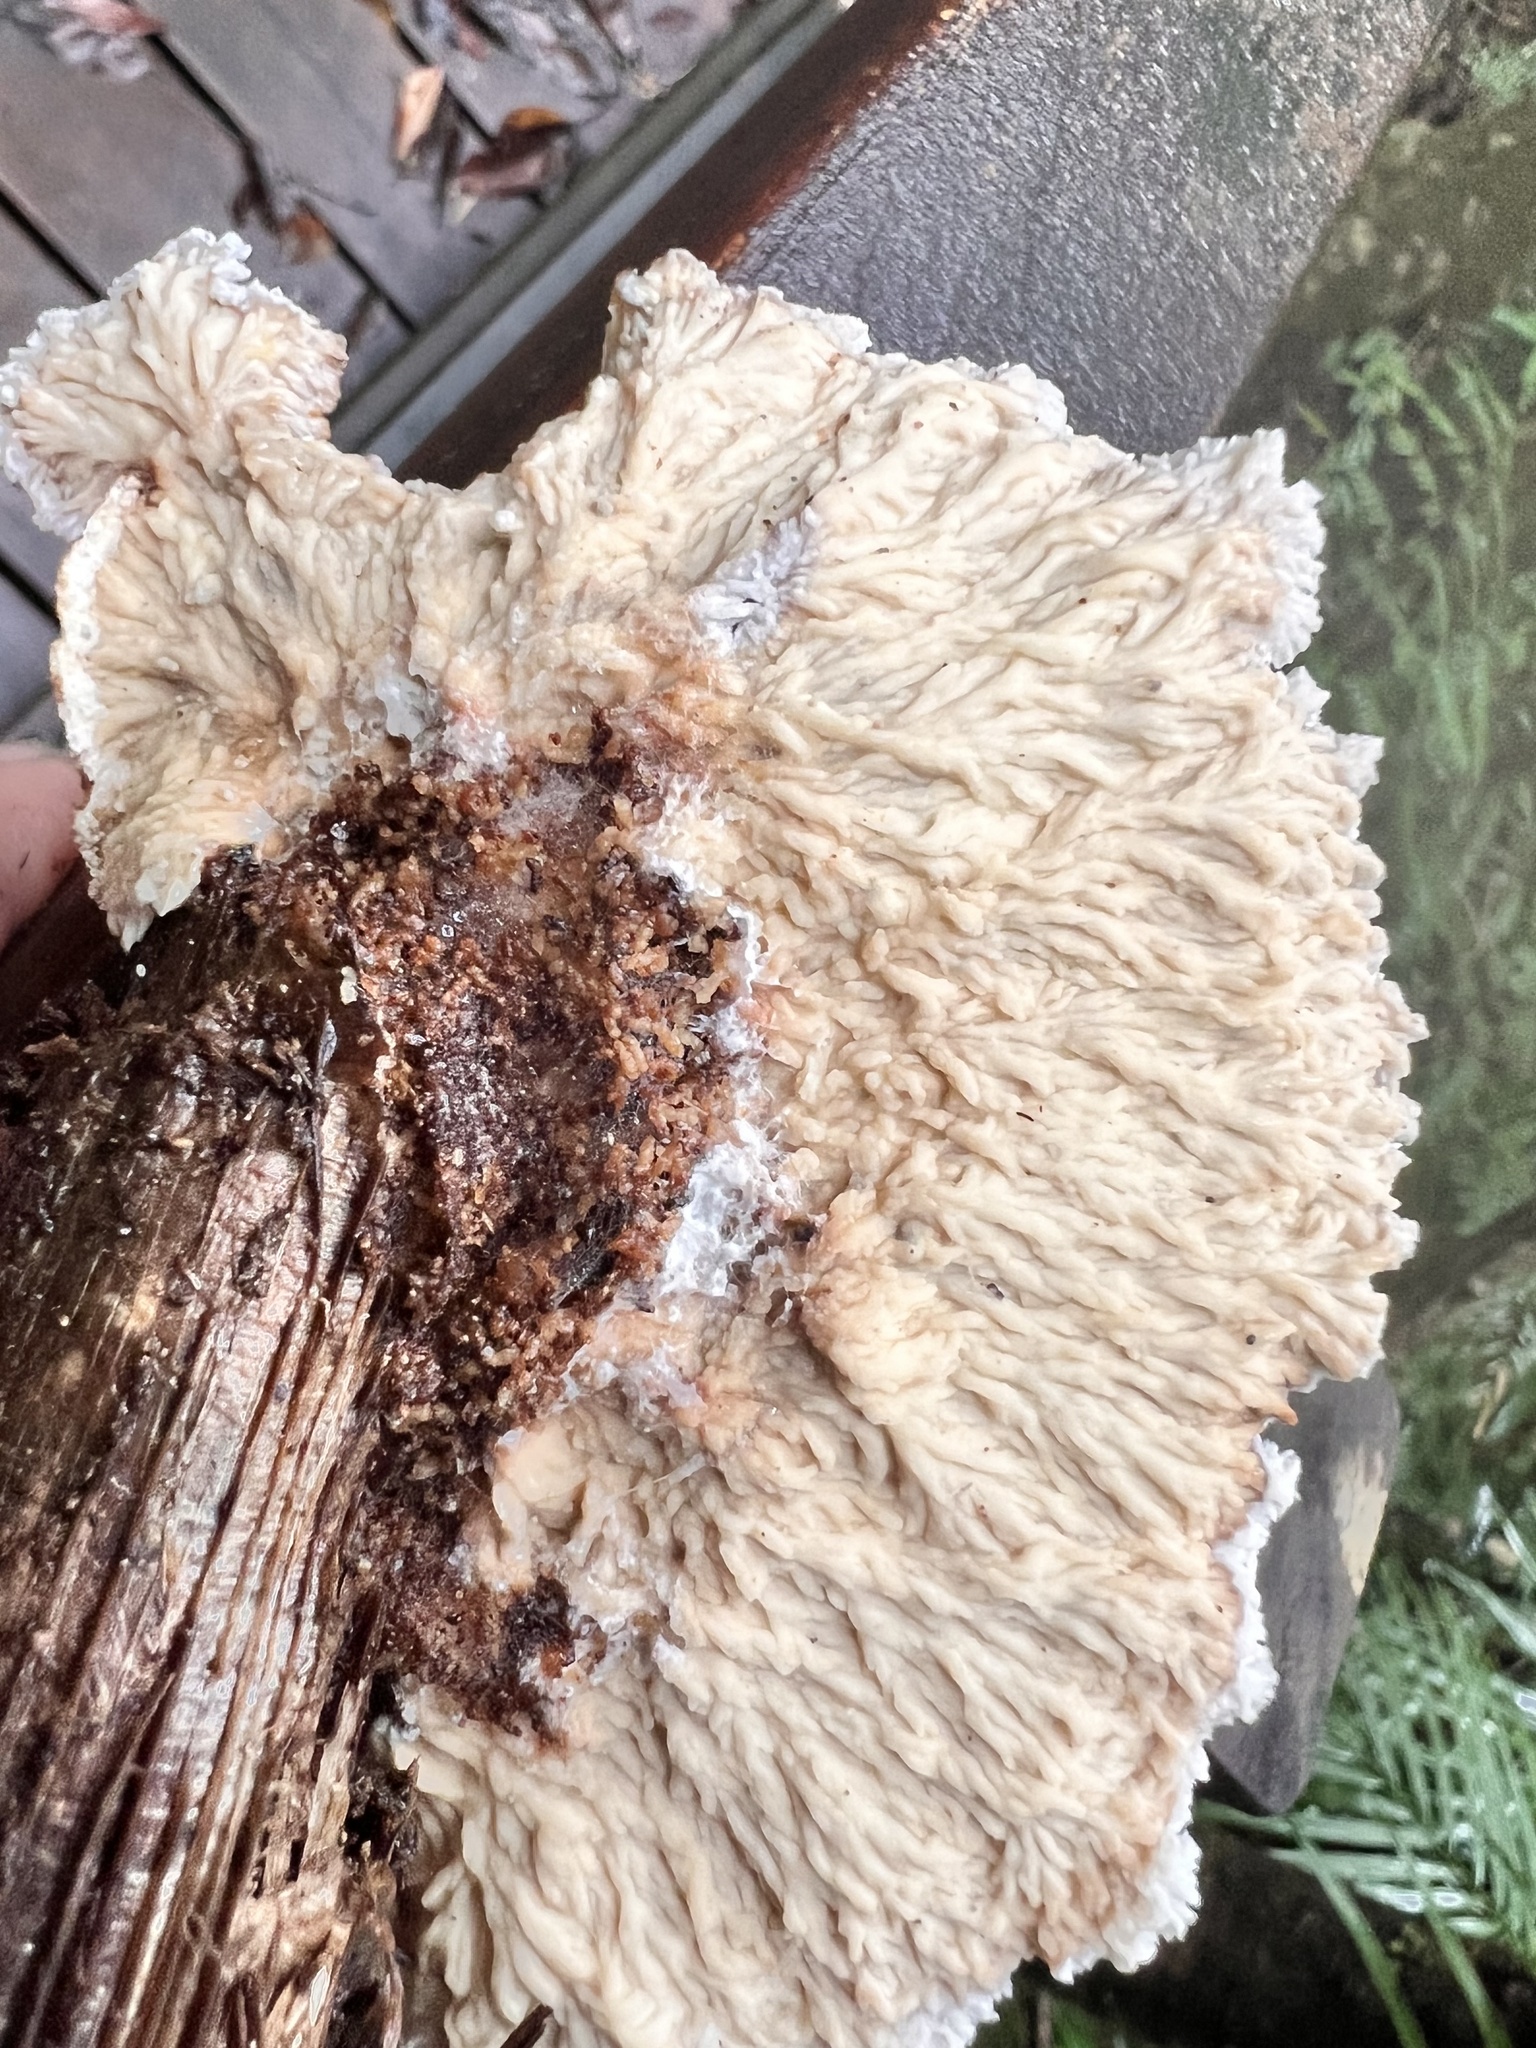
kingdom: Fungi
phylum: Basidiomycota
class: Agaricomycetes
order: Polyporales
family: Panaceae
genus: Cymatoderma
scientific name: Cymatoderma dendriticum
